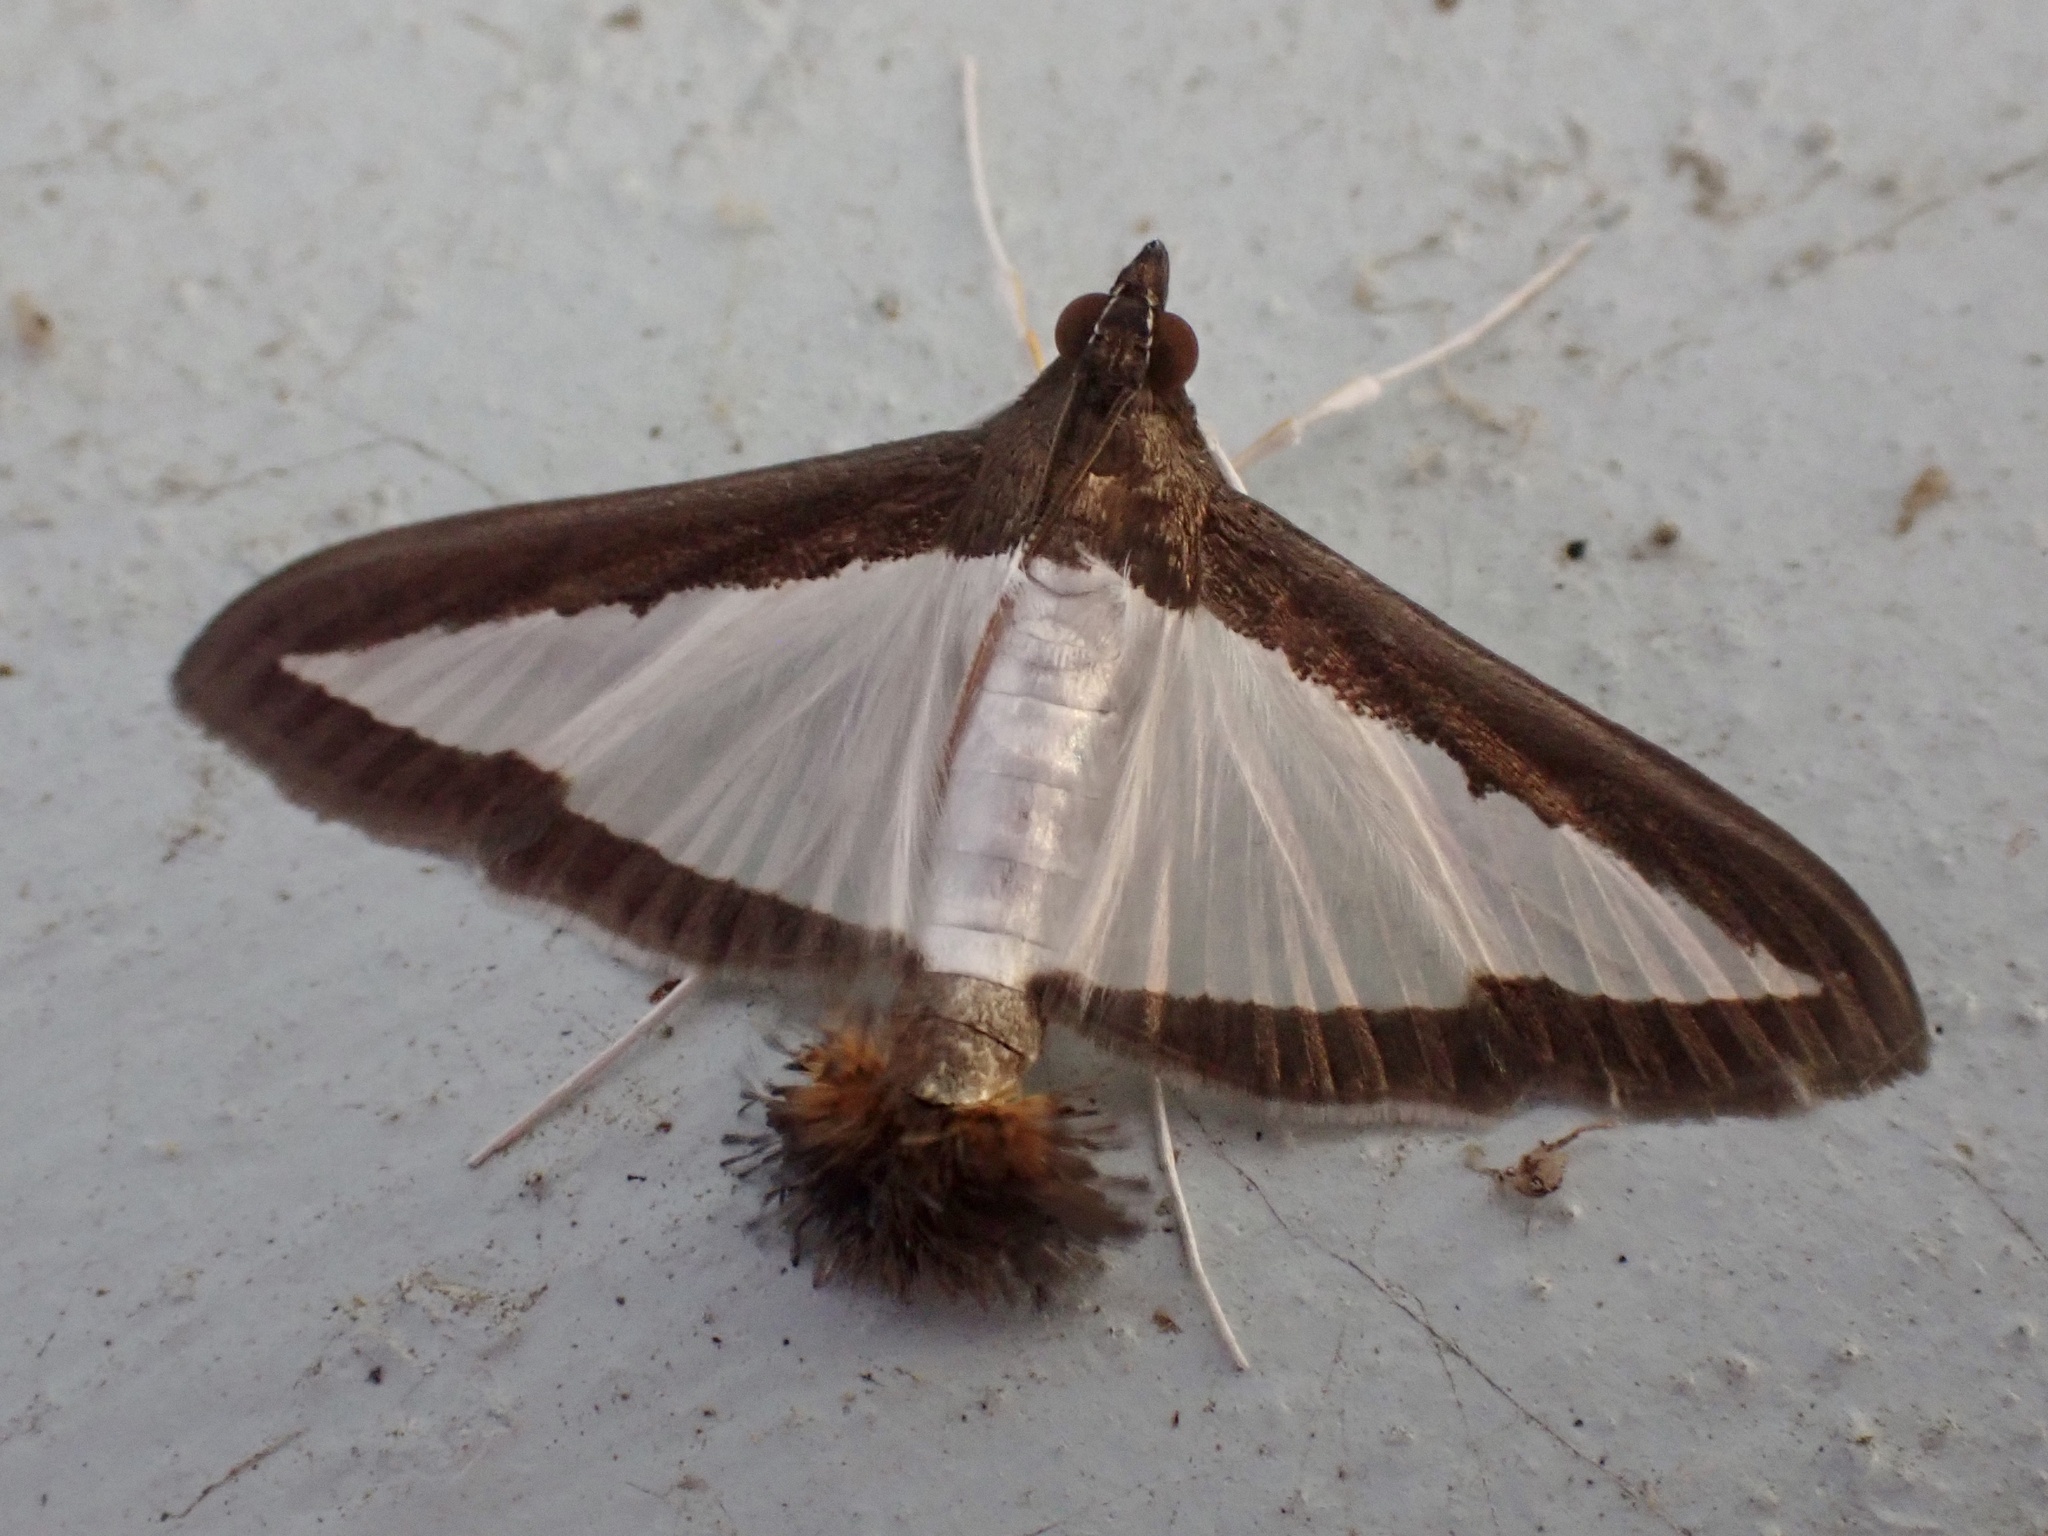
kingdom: Animalia
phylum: Arthropoda
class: Insecta
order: Lepidoptera
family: Crambidae
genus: Diaphania
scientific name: Diaphania hyalinata
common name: Melonworm
